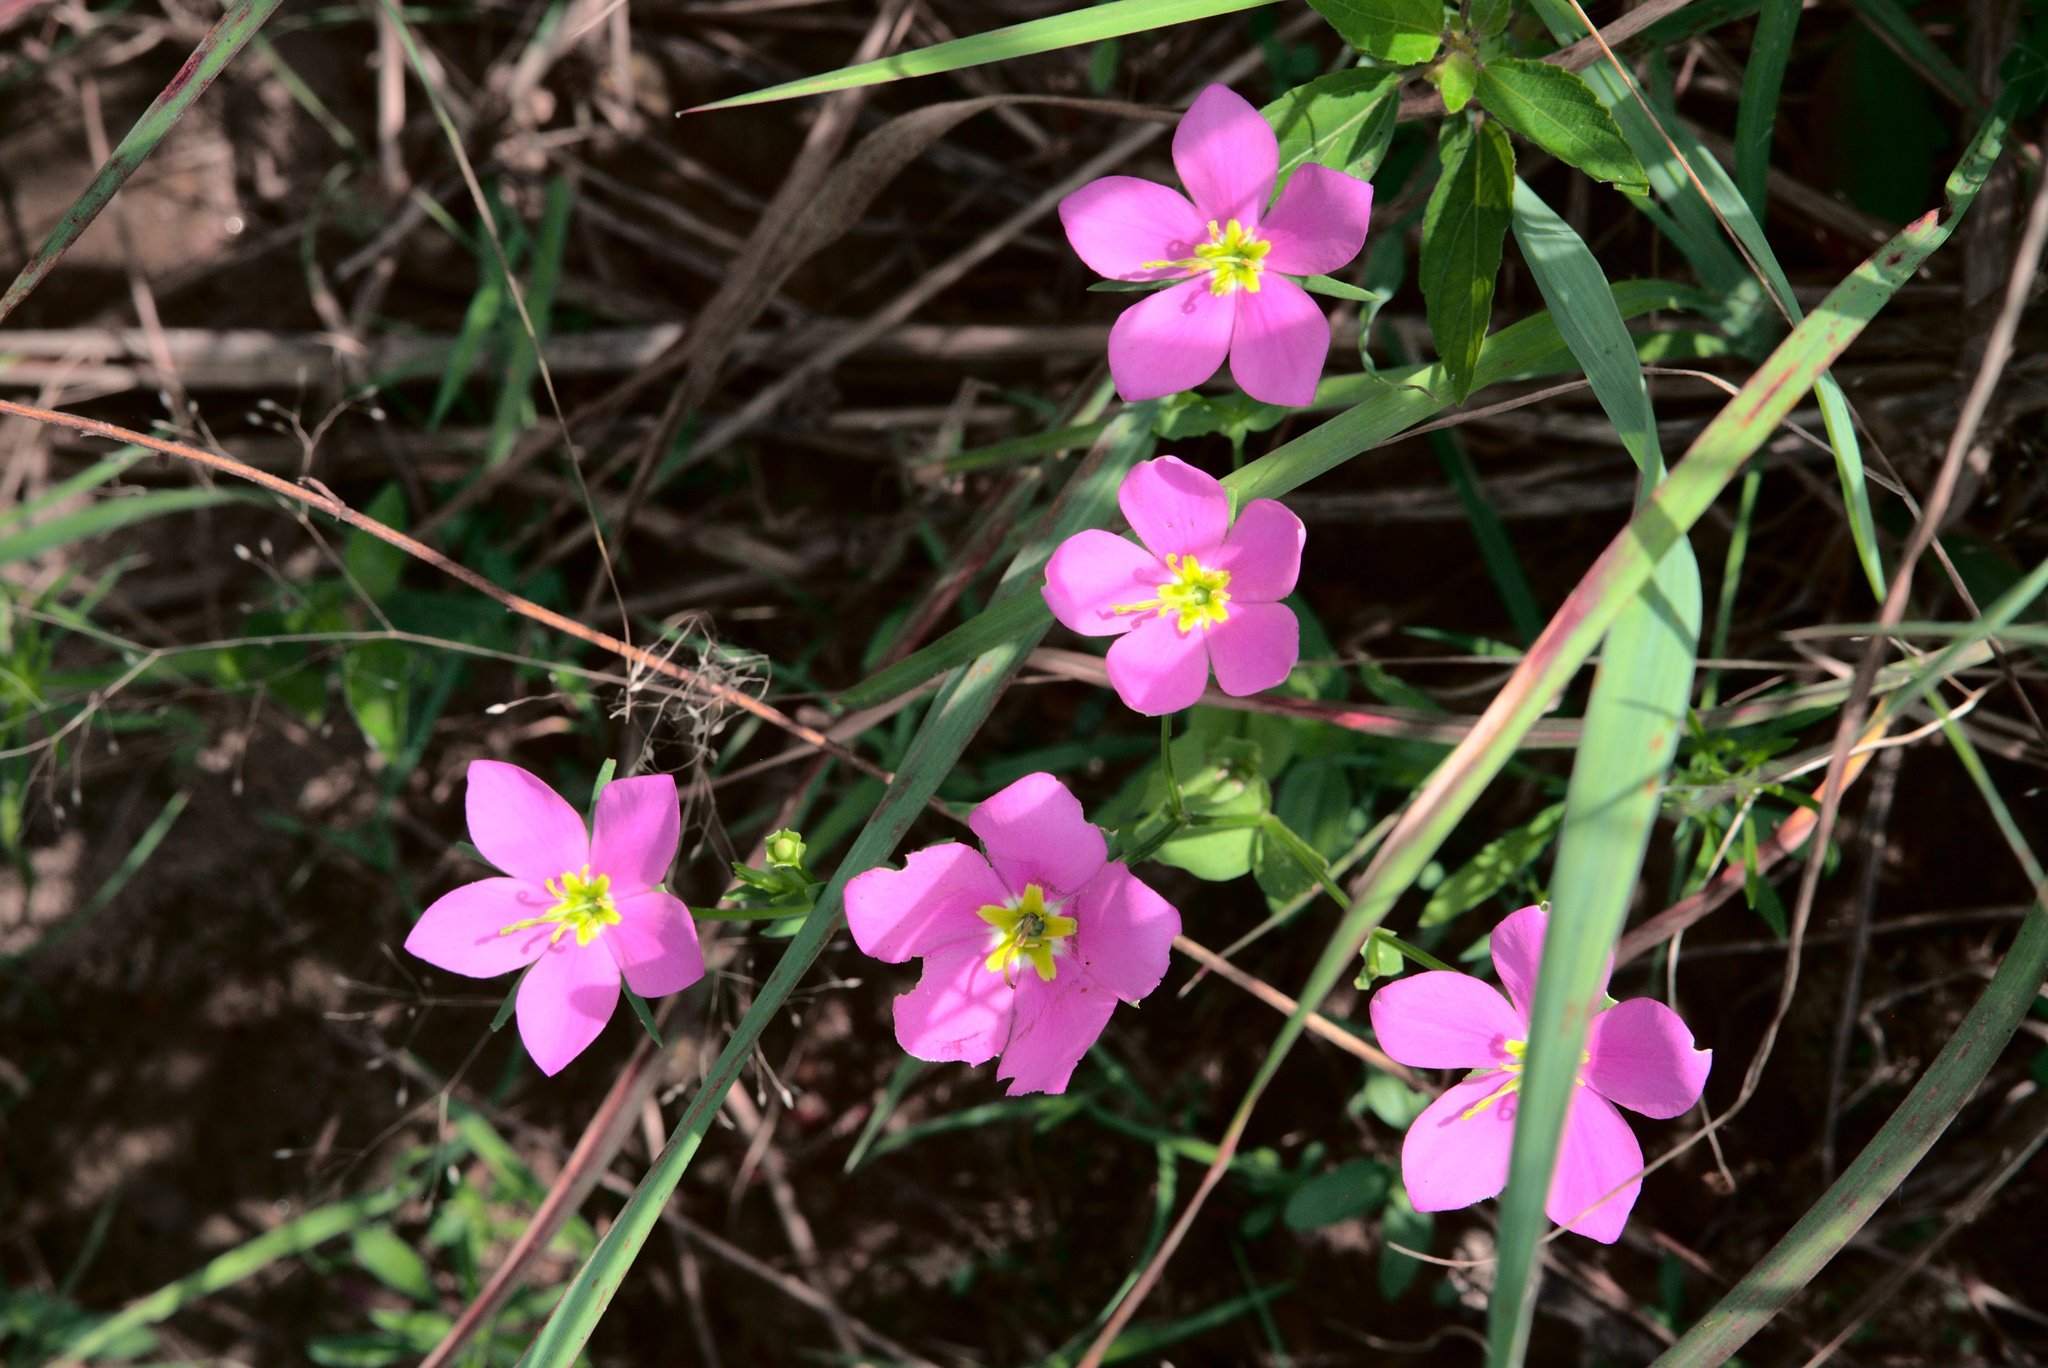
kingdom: Plantae
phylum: Tracheophyta
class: Magnoliopsida
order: Gentianales
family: Gentianaceae
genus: Sabatia
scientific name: Sabatia campestris
